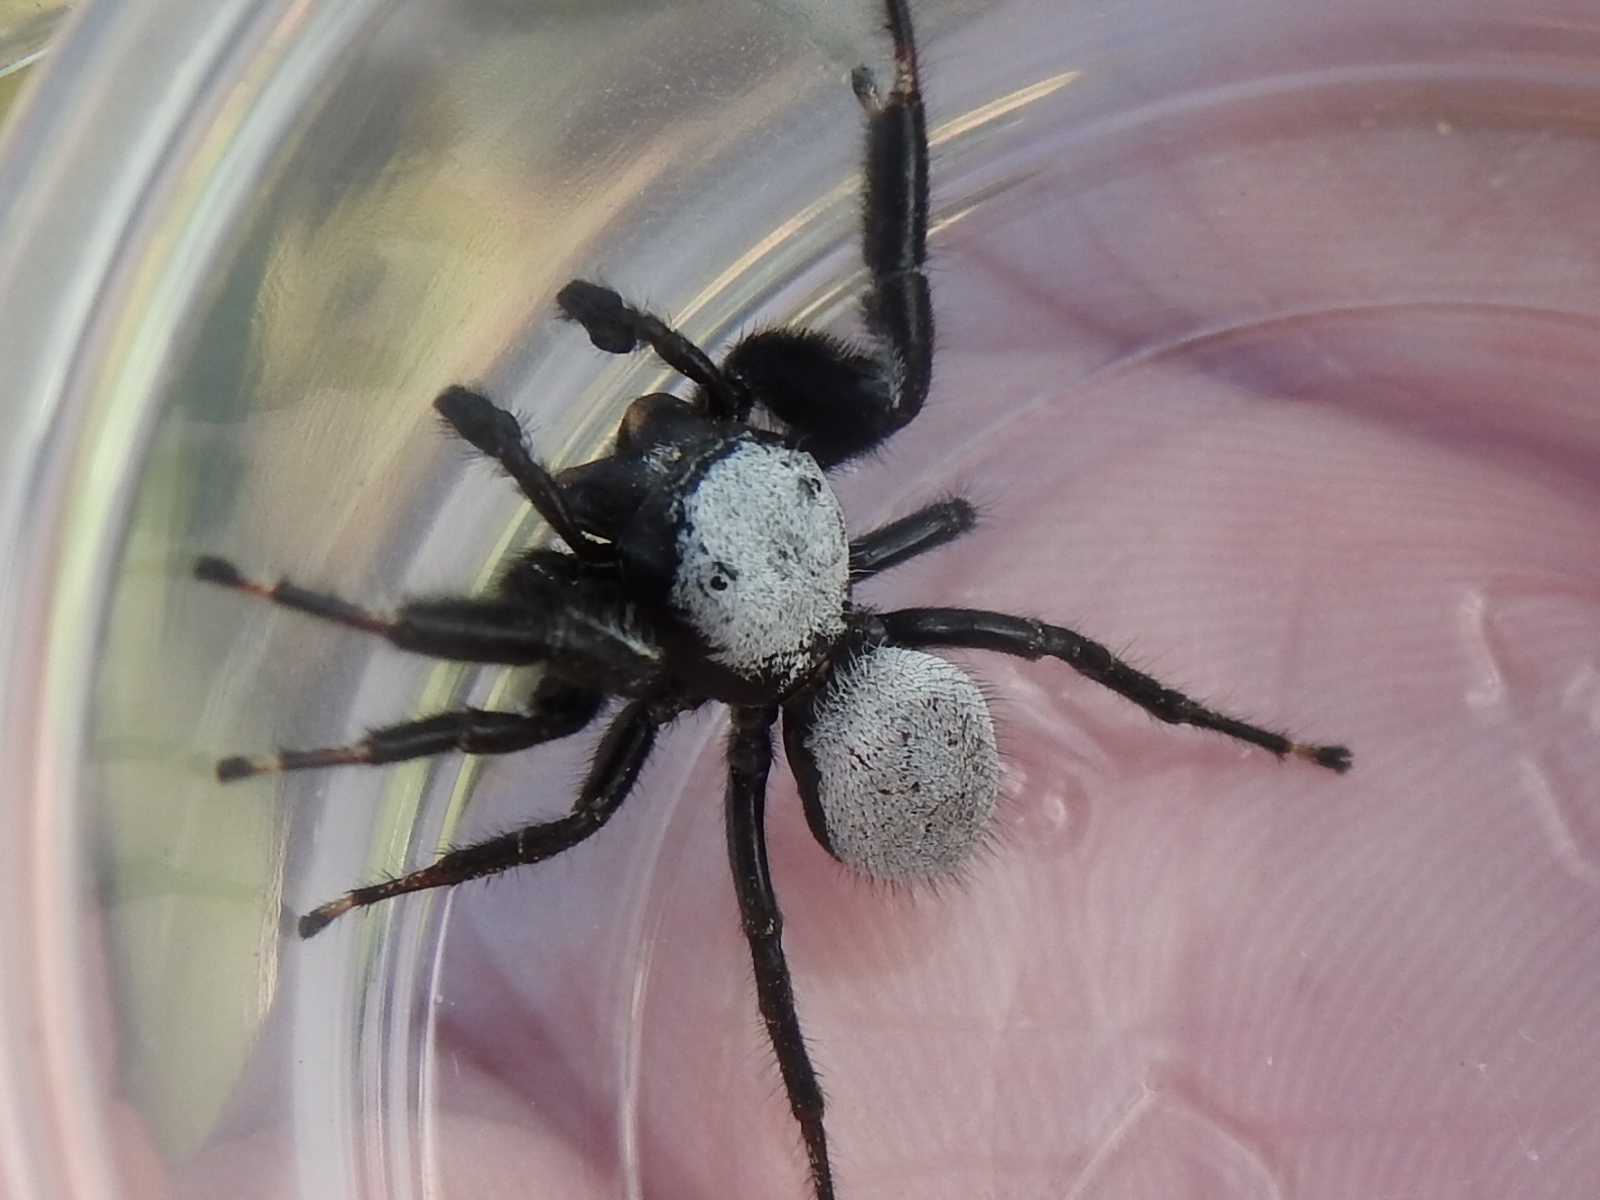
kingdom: Animalia
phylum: Arthropoda
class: Arachnida
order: Araneae
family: Salticidae
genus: Phidippus
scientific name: Phidippus octopunctatus
